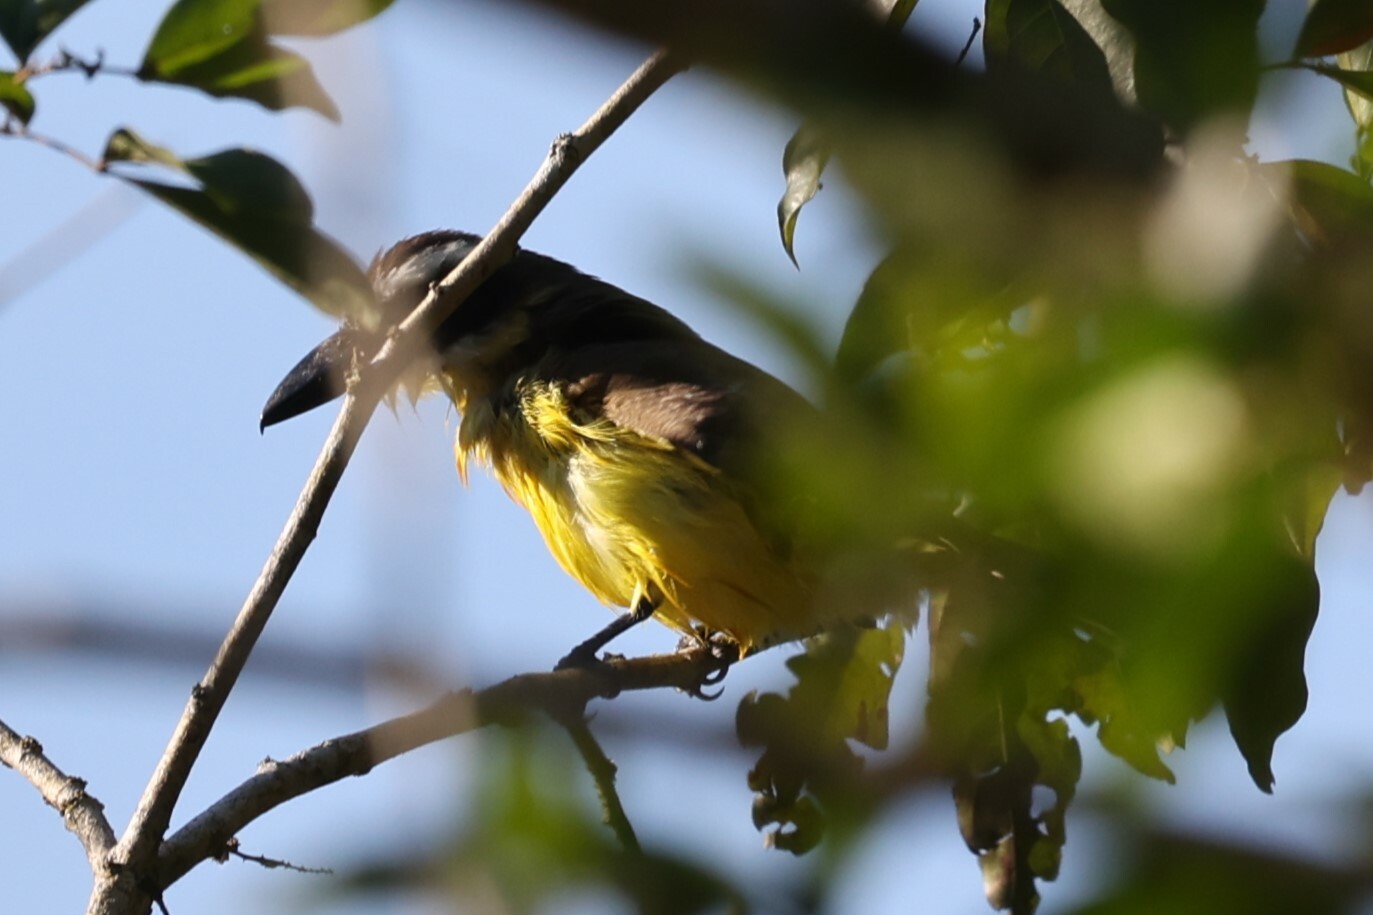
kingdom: Animalia
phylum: Chordata
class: Aves
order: Passeriformes
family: Tyrannidae
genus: Megarynchus
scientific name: Megarynchus pitangua
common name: Boat-billed flycatcher
